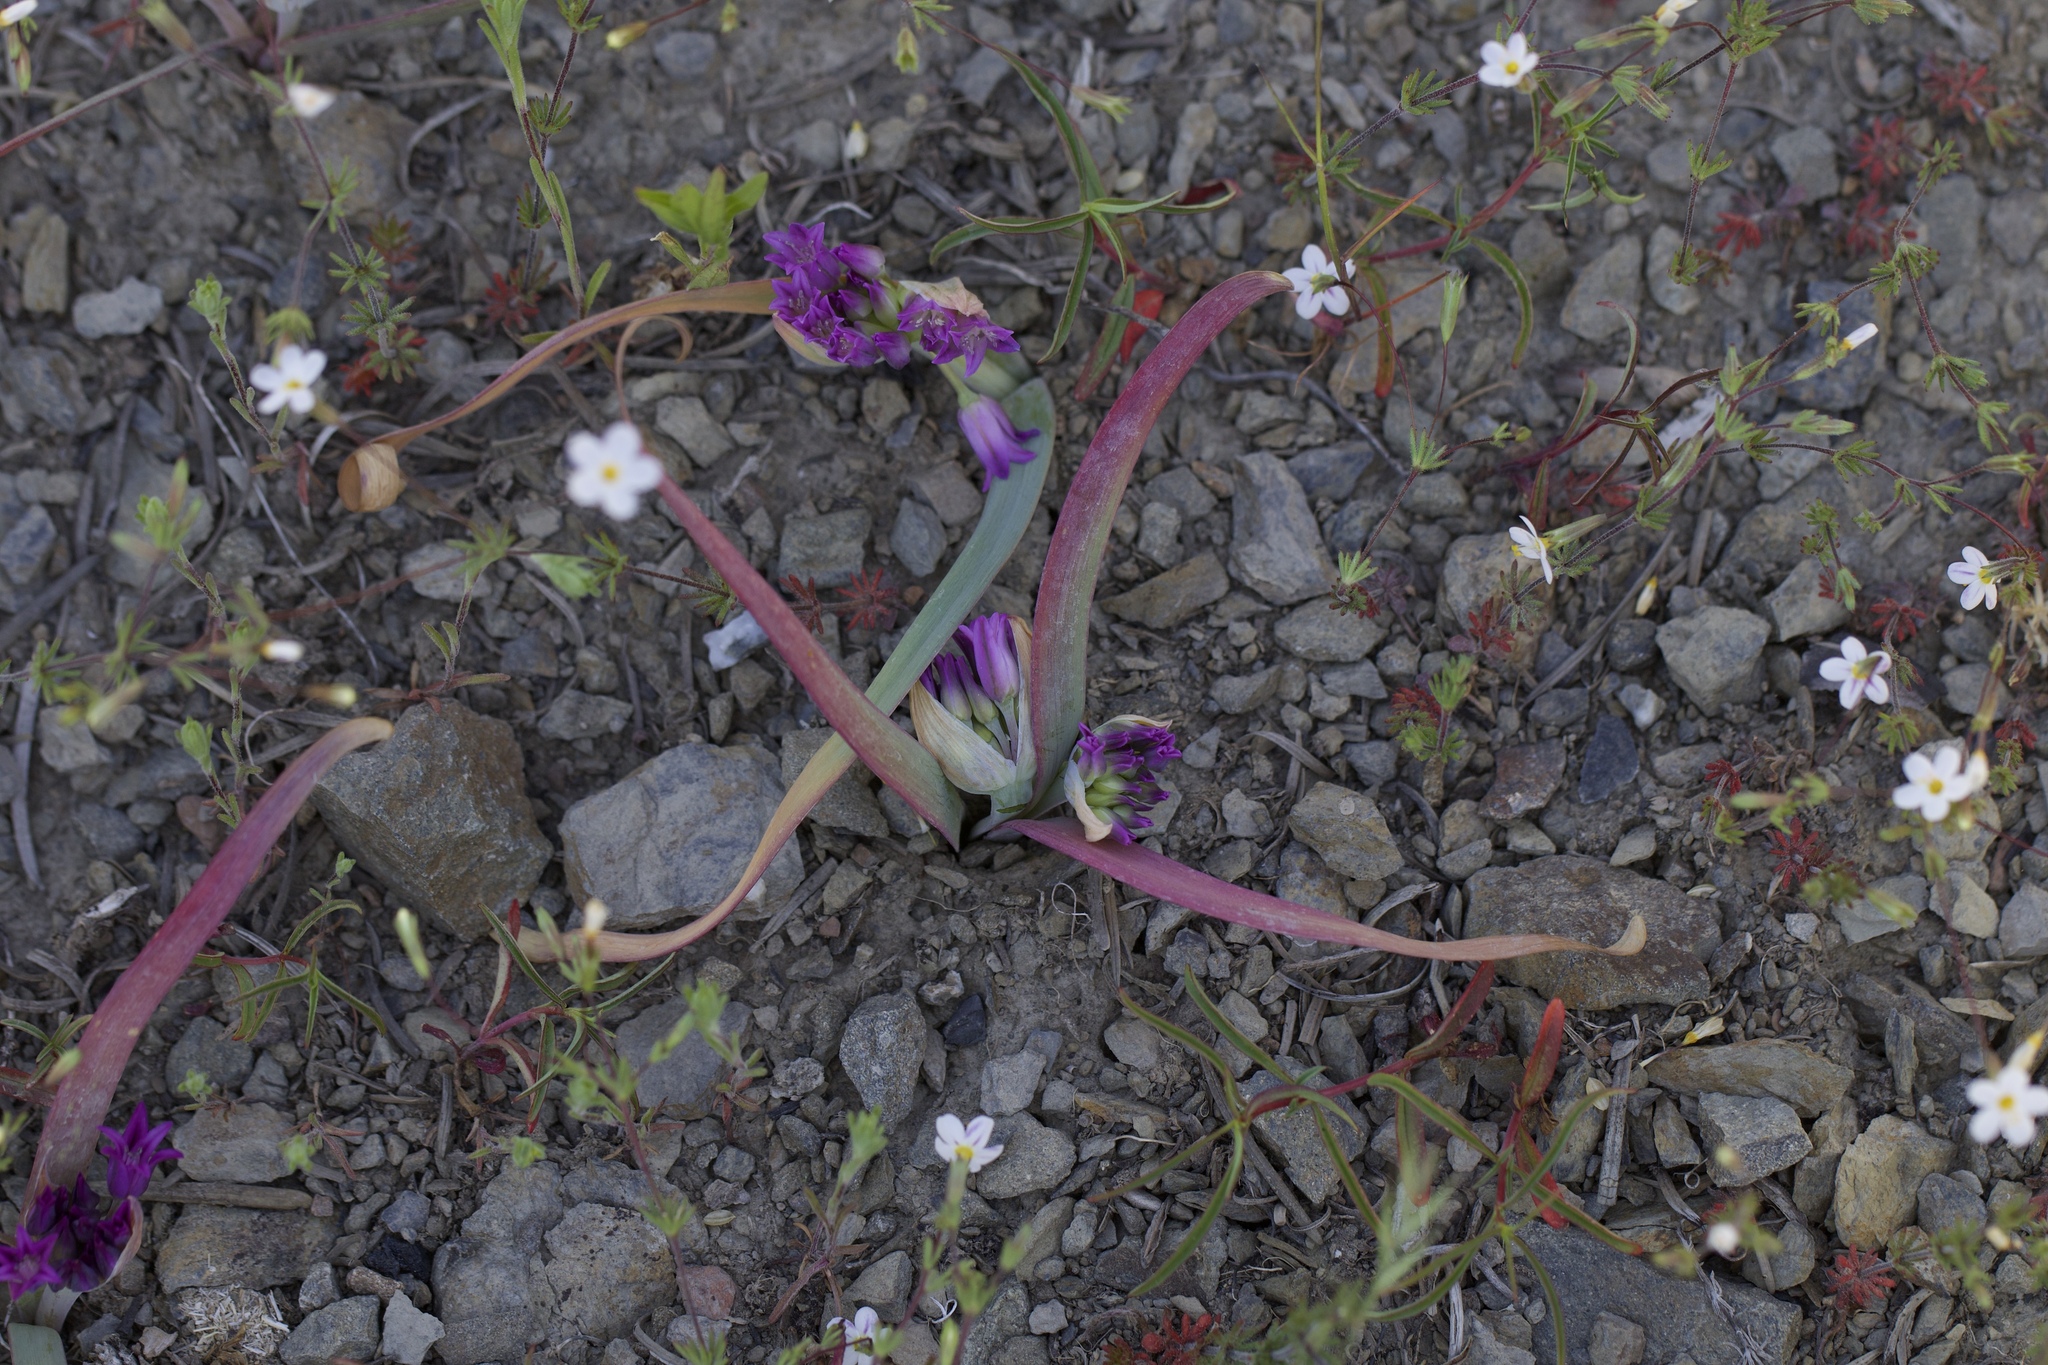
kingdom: Plantae
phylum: Tracheophyta
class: Magnoliopsida
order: Ericales
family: Polemoniaceae
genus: Leptosiphon
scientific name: Leptosiphon bolanderi
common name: Bolander's linanthus
